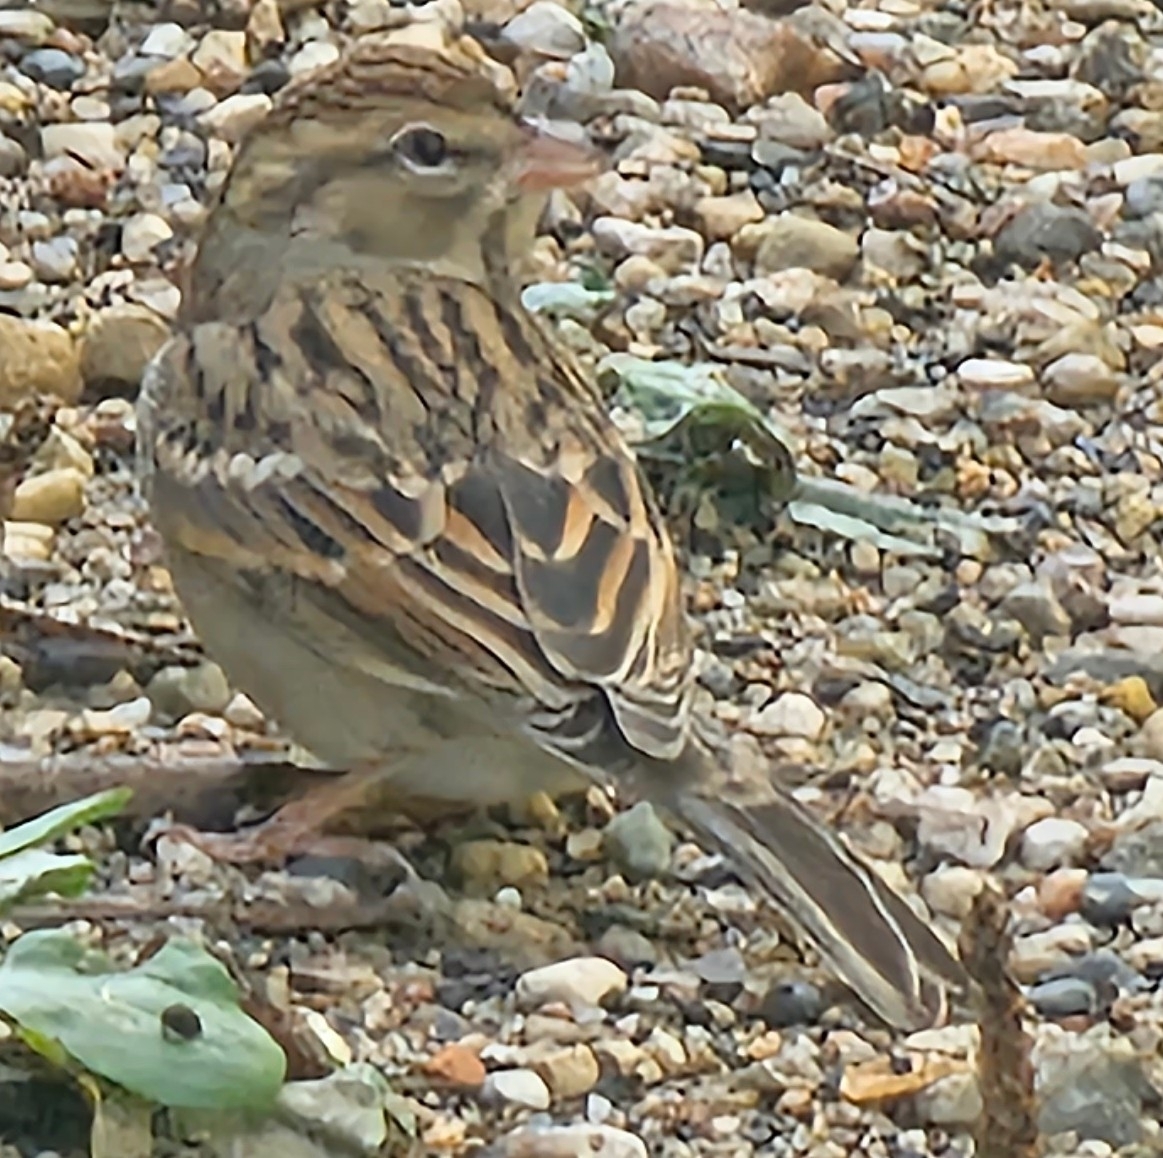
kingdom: Animalia
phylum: Chordata
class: Aves
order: Passeriformes
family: Passerellidae
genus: Spizella
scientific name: Spizella passerina
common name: Chipping sparrow
